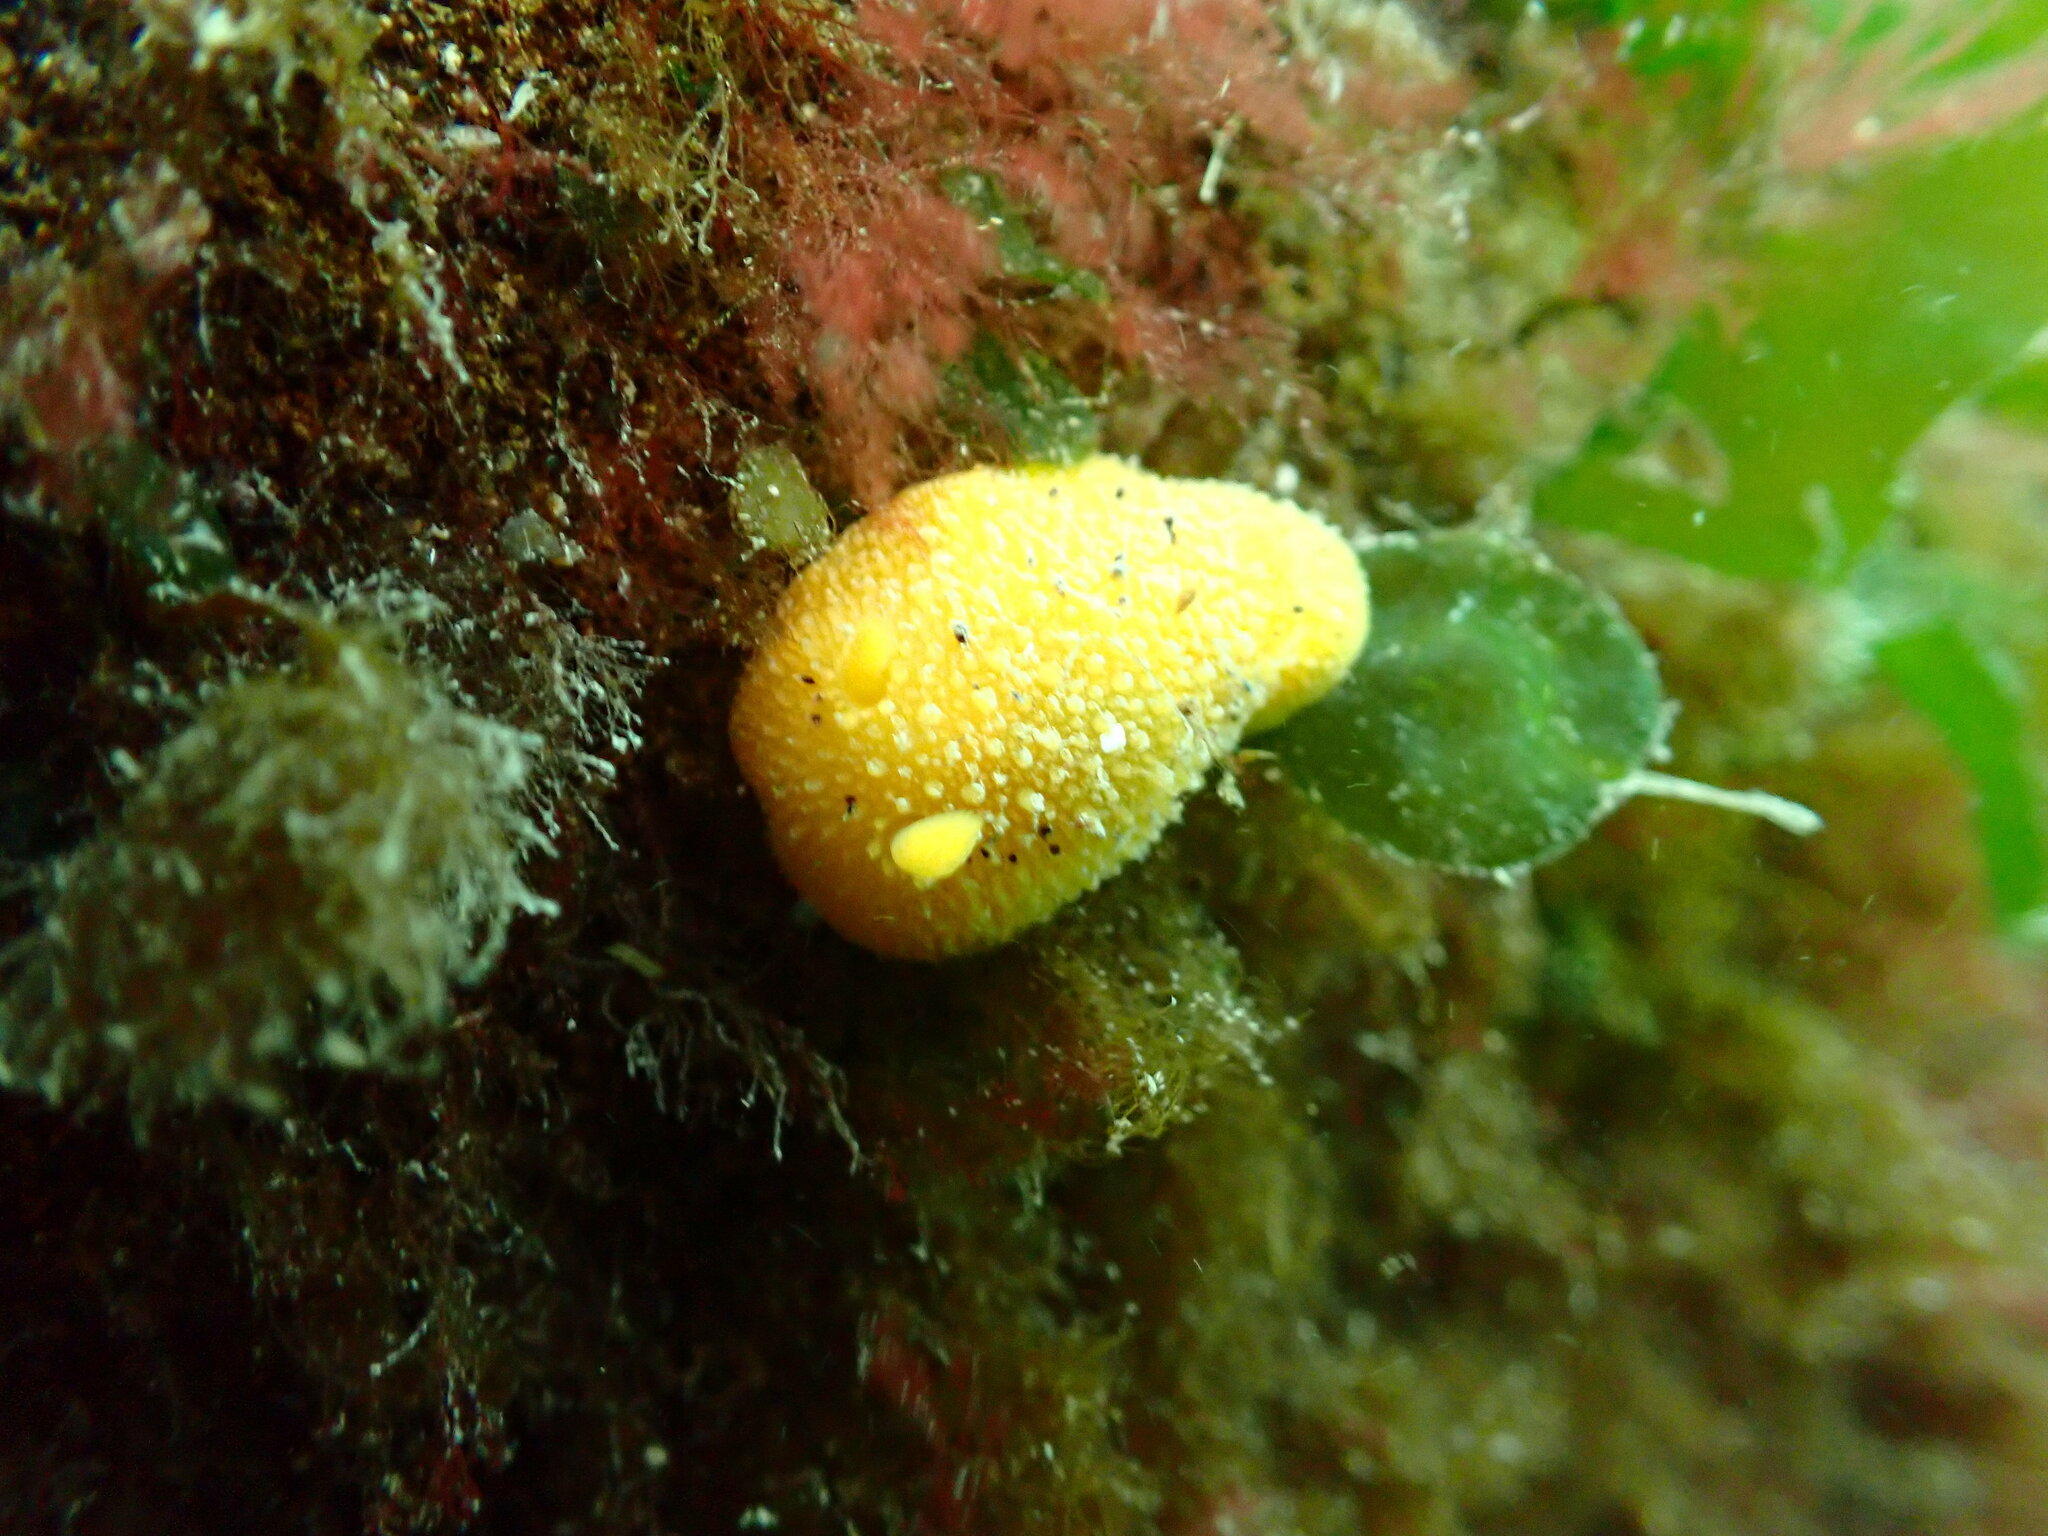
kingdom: Animalia
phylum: Mollusca
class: Gastropoda
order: Nudibranchia
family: Dorididae
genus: Doris
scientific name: Doris montereyensis
